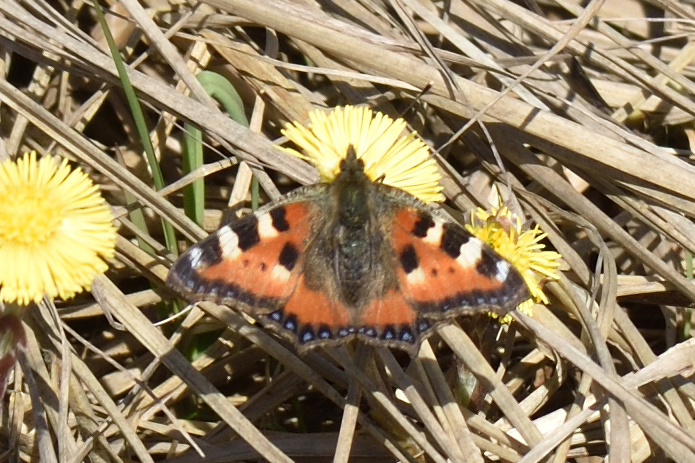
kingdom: Animalia
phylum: Arthropoda
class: Insecta
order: Lepidoptera
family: Nymphalidae
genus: Aglais
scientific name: Aglais urticae
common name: Small tortoiseshell
